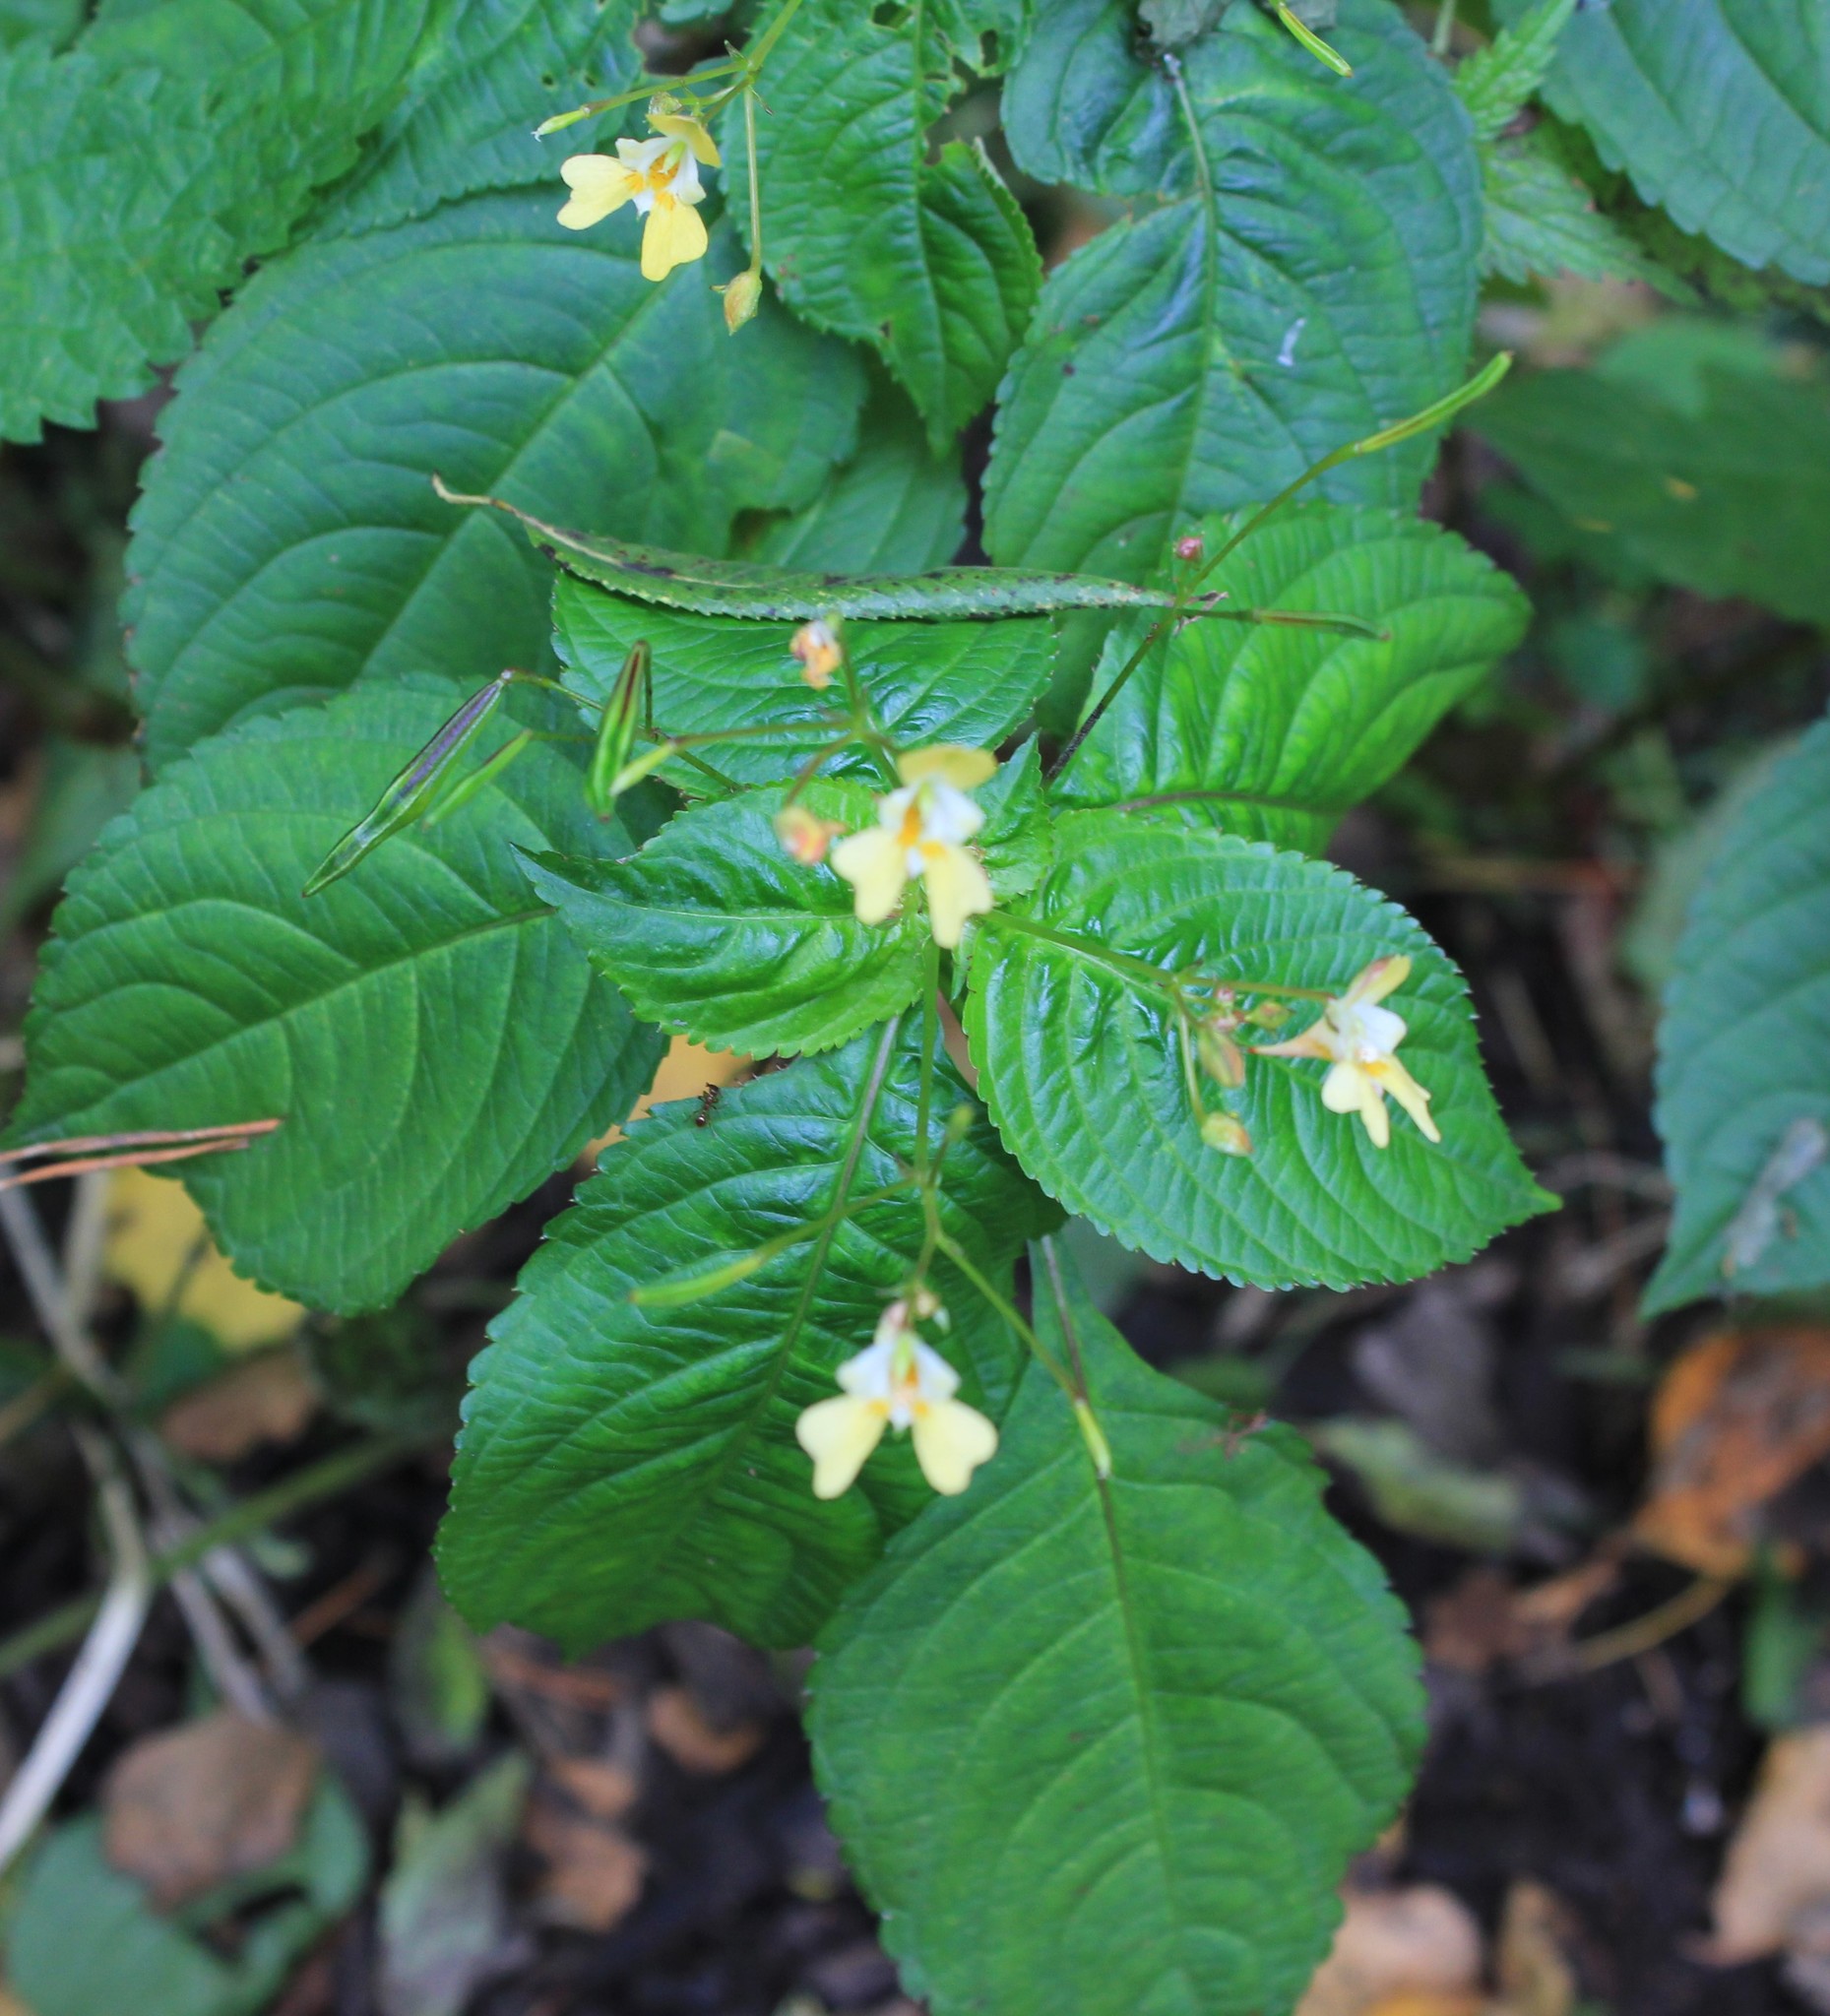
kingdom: Plantae
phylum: Tracheophyta
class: Magnoliopsida
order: Ericales
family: Balsaminaceae
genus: Impatiens
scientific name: Impatiens parviflora
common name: Small balsam
